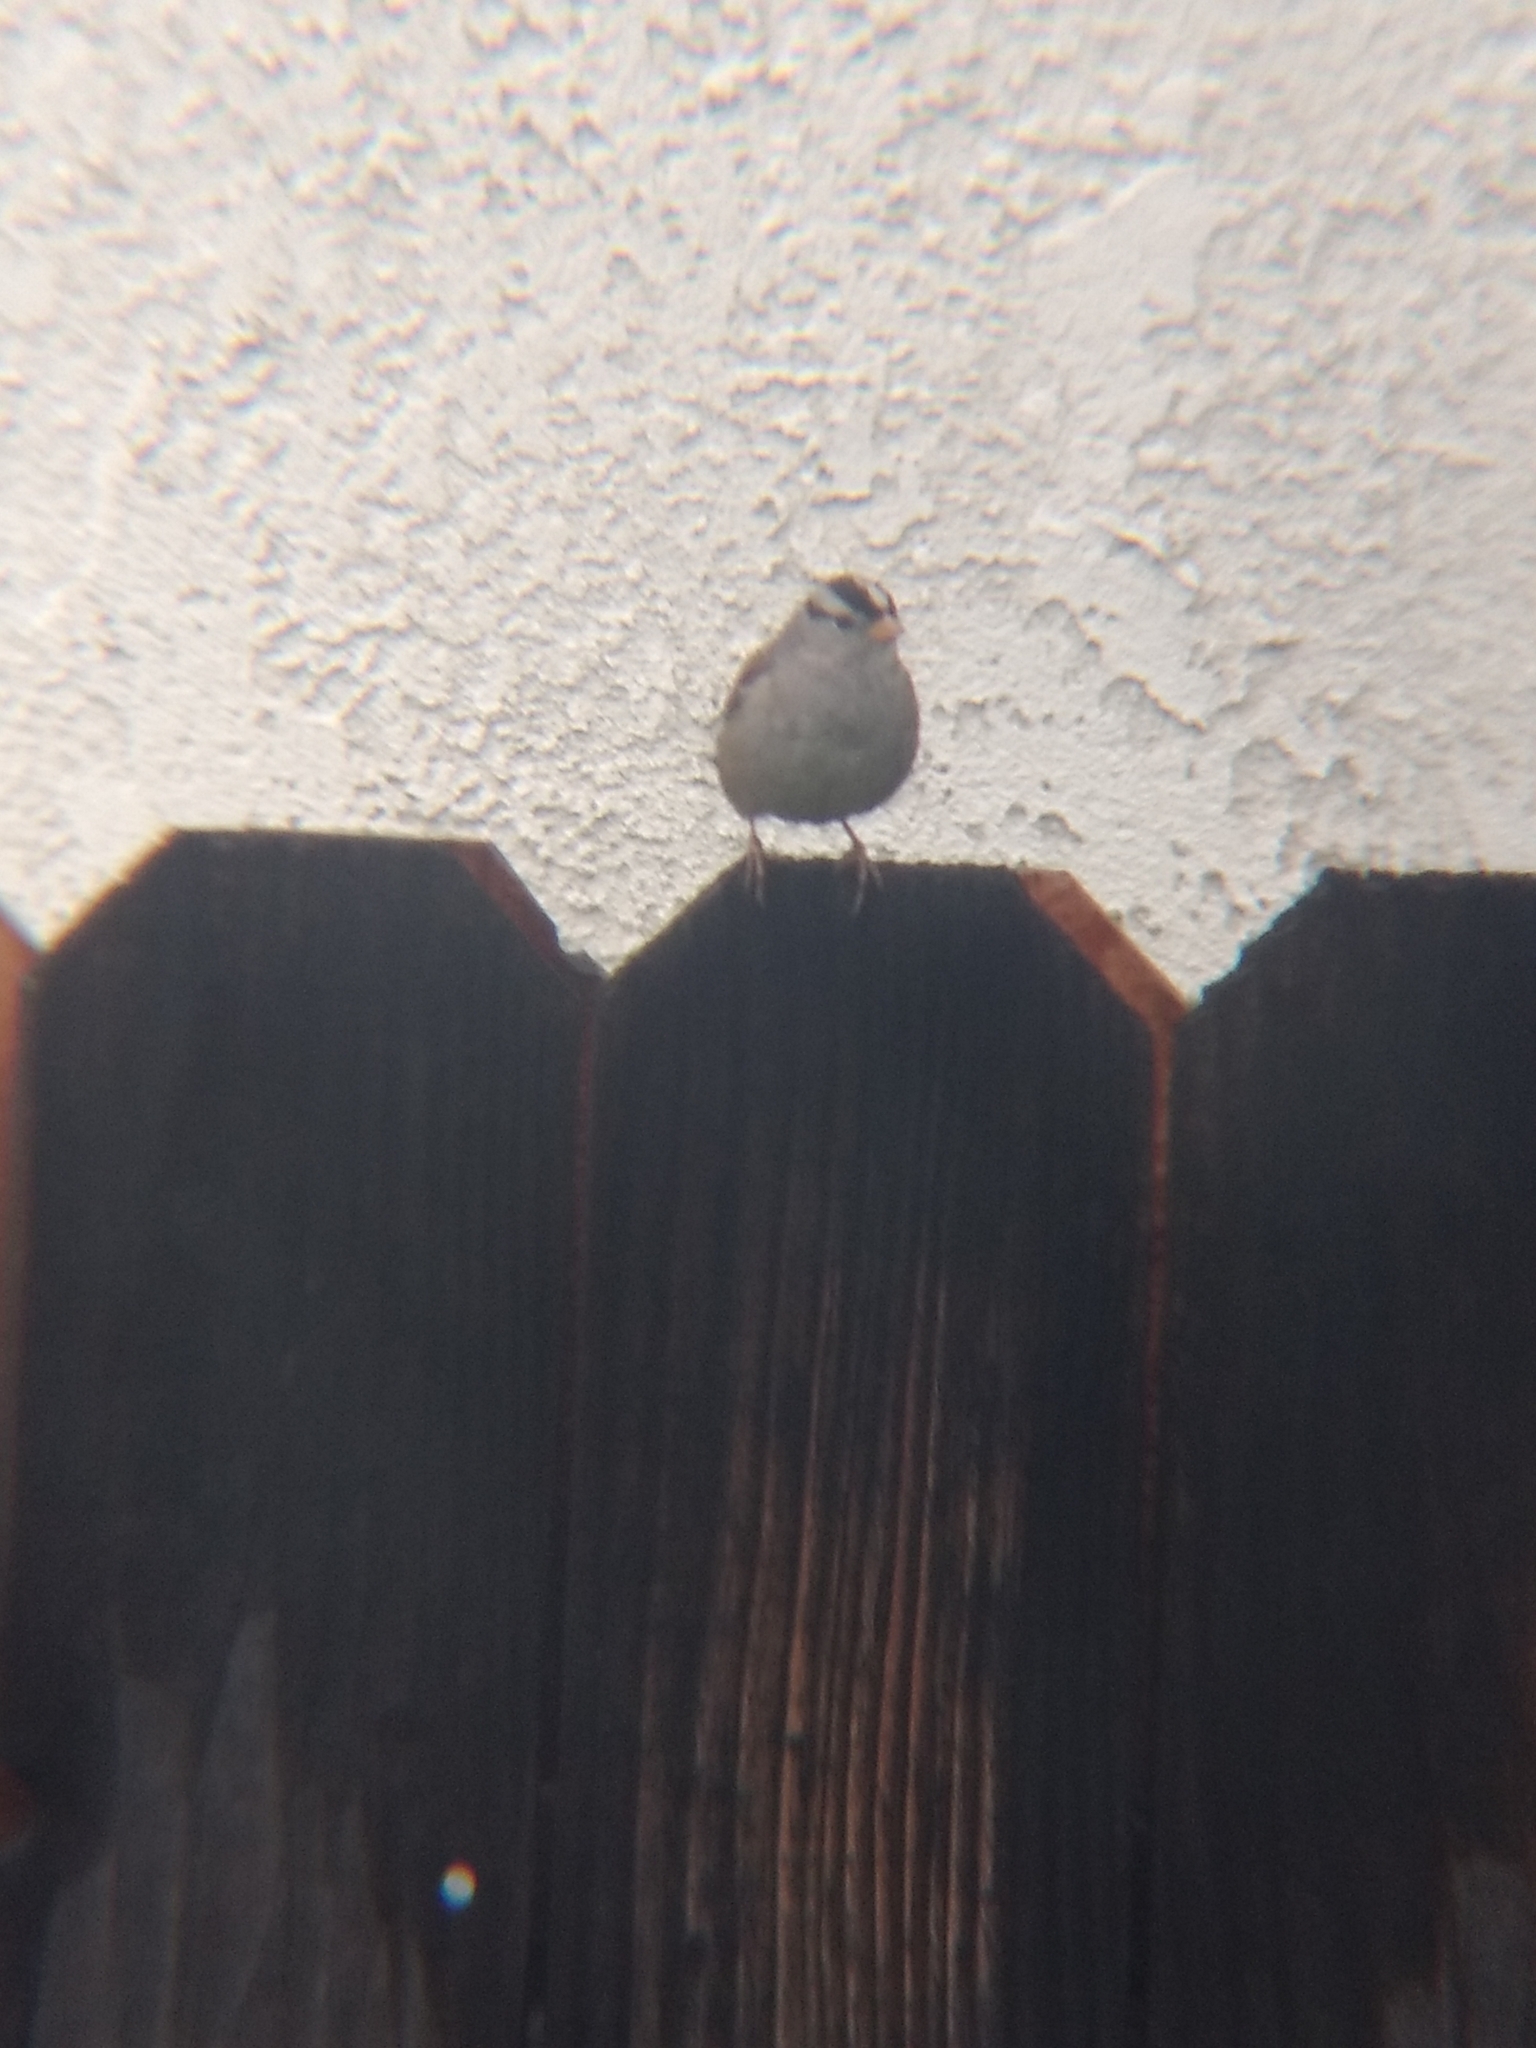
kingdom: Animalia
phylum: Chordata
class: Aves
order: Passeriformes
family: Passerellidae
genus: Zonotrichia
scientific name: Zonotrichia leucophrys
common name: White-crowned sparrow
